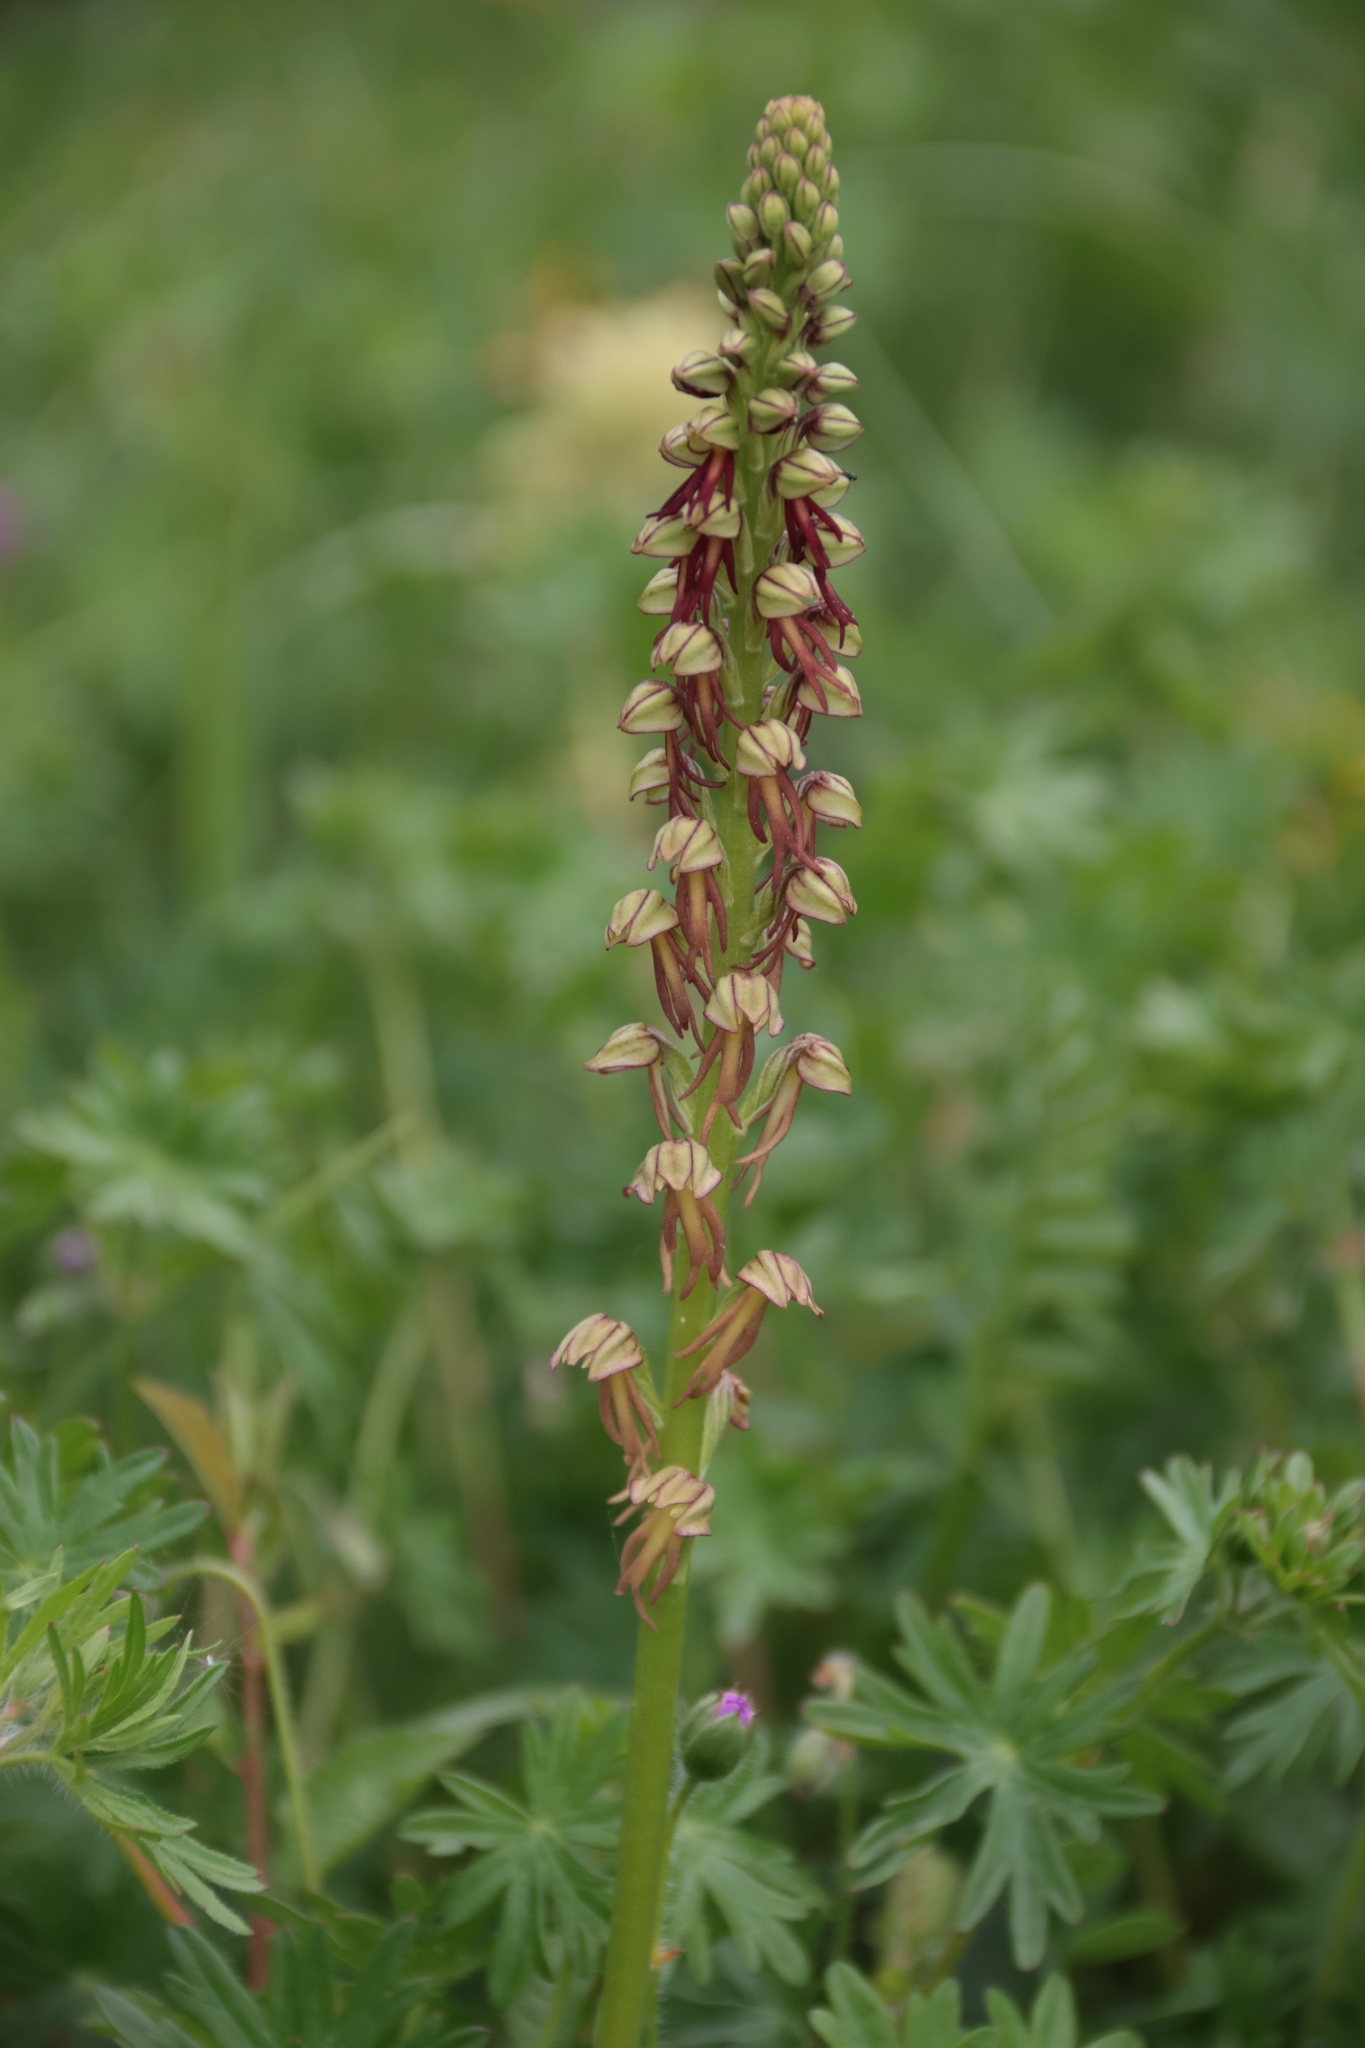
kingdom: Plantae
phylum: Tracheophyta
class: Liliopsida
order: Asparagales
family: Orchidaceae
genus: Orchis
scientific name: Orchis anthropophora
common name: Man orchid
